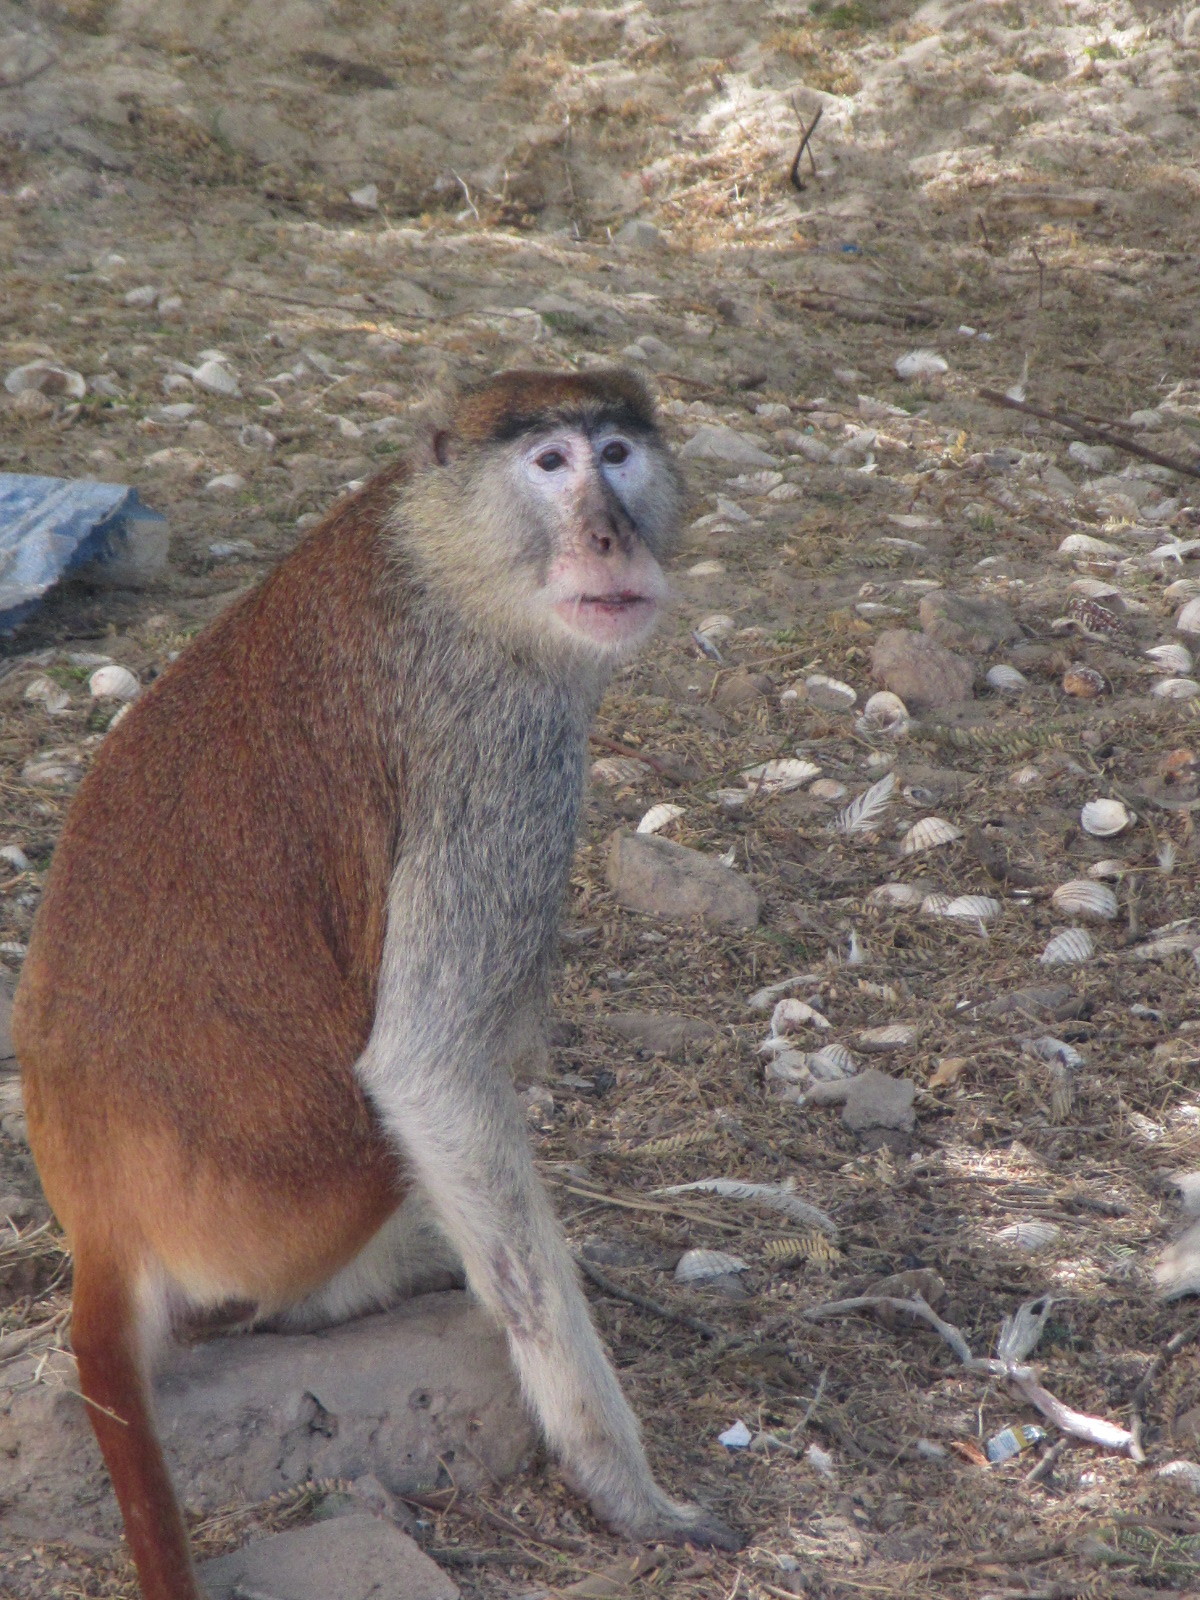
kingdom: Animalia
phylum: Chordata
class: Mammalia
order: Primates
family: Cercopithecidae
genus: Erythrocebus
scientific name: Erythrocebus patas
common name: Patas monkey
